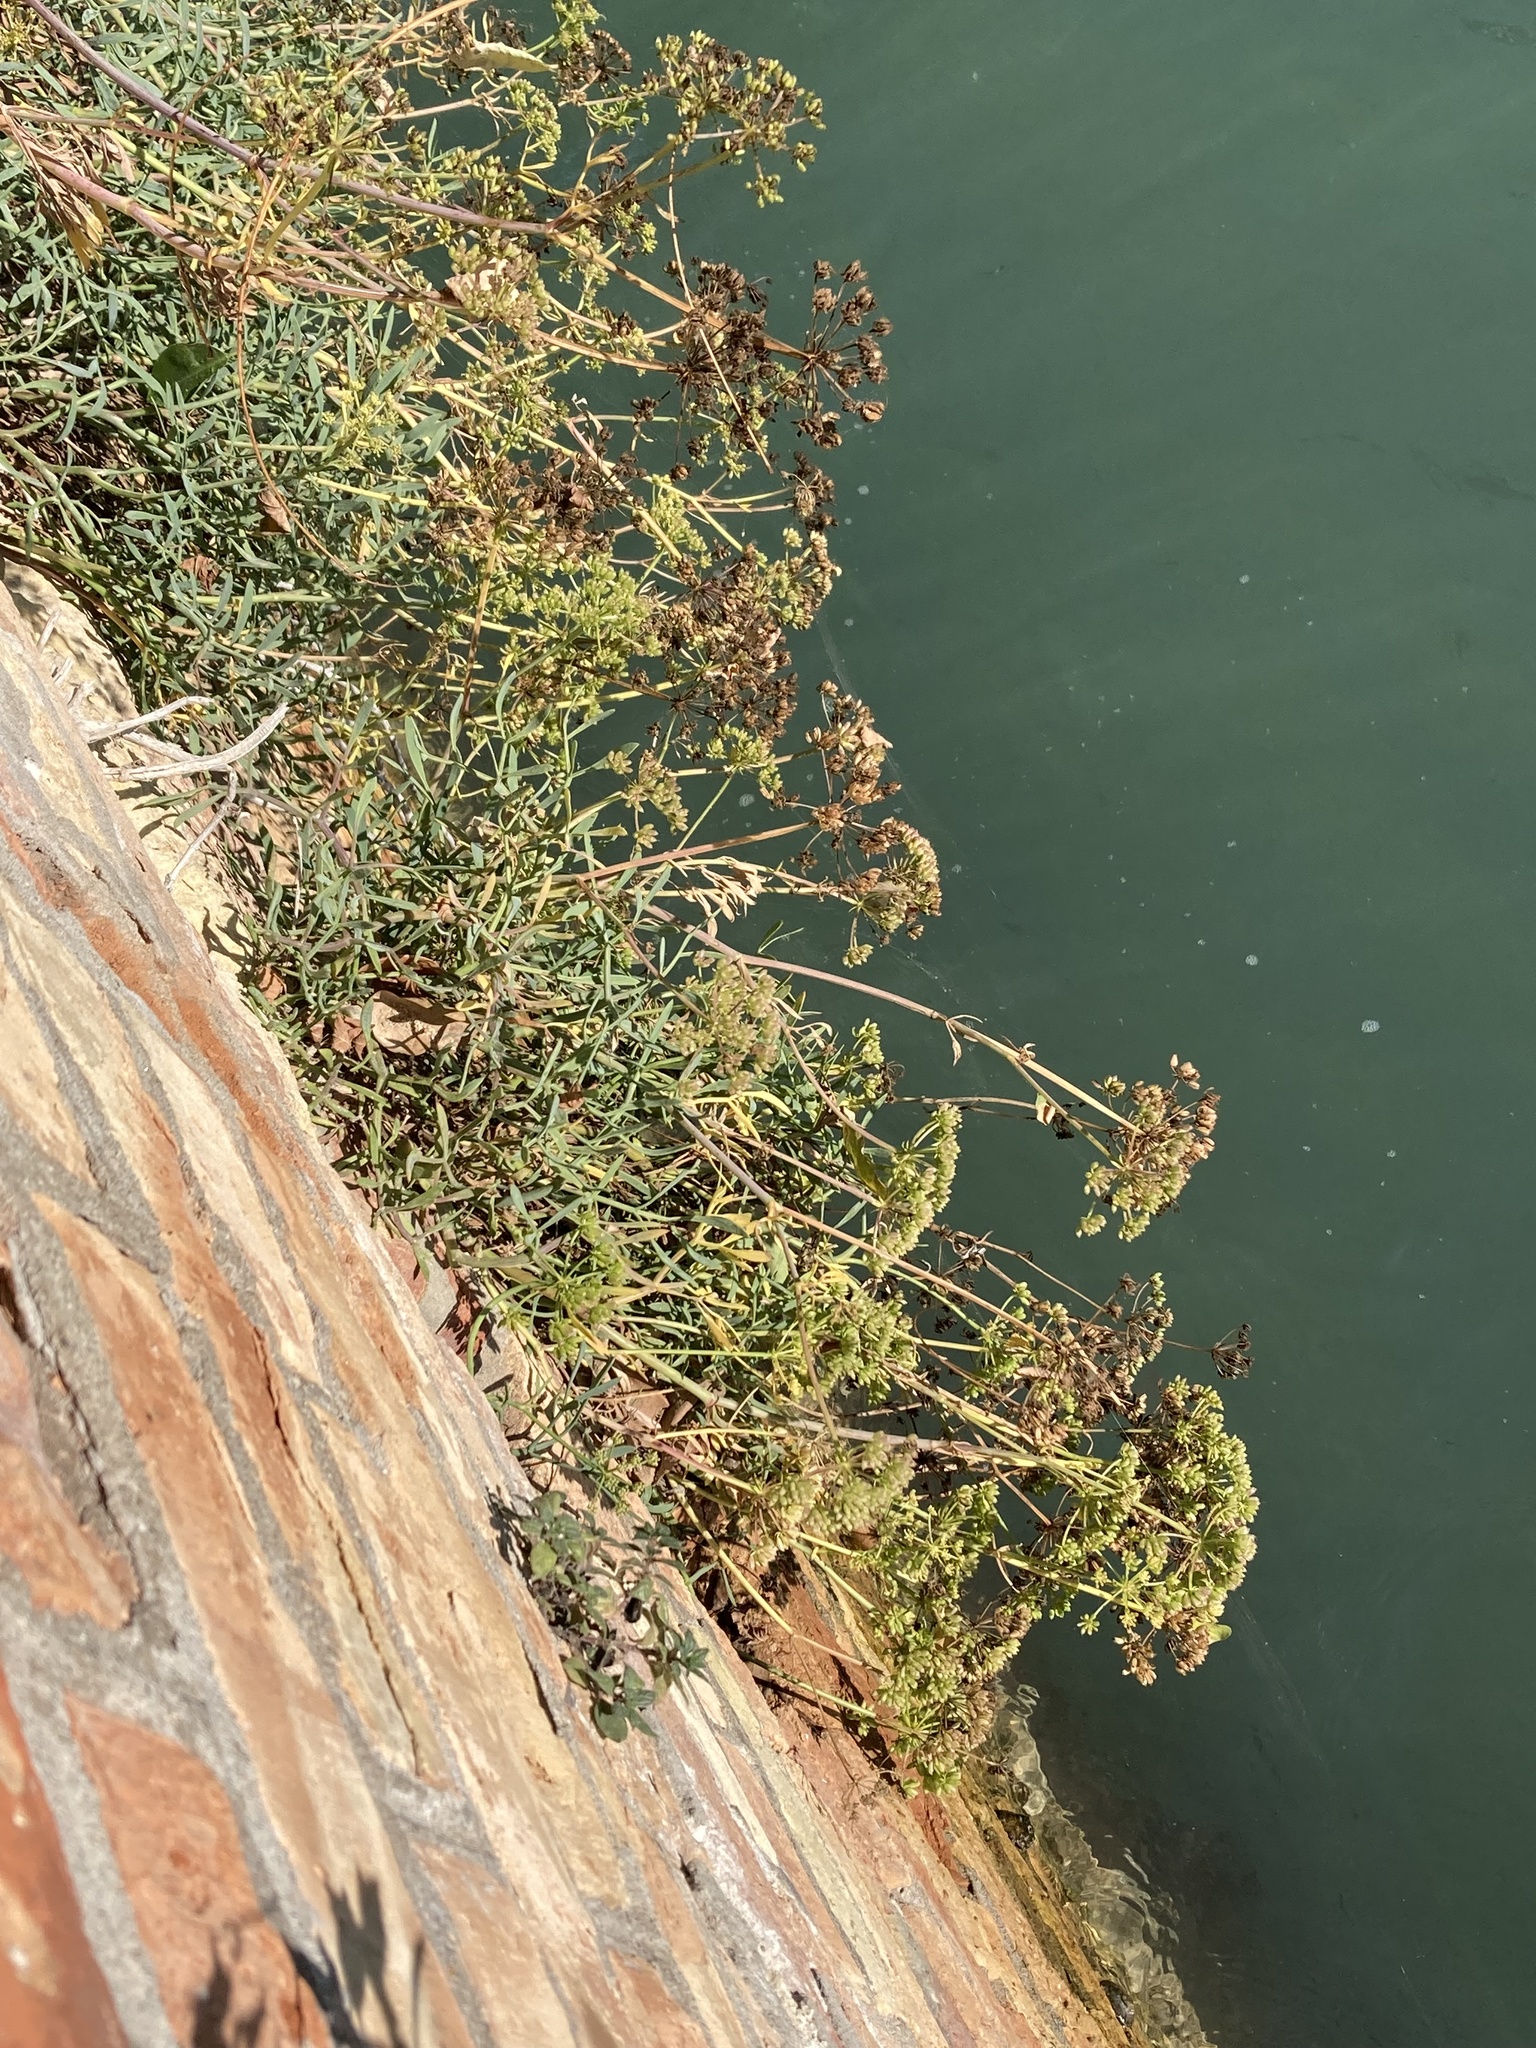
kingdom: Plantae
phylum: Tracheophyta
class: Magnoliopsida
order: Apiales
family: Apiaceae
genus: Crithmum
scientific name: Crithmum maritimum
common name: Rock samphire
